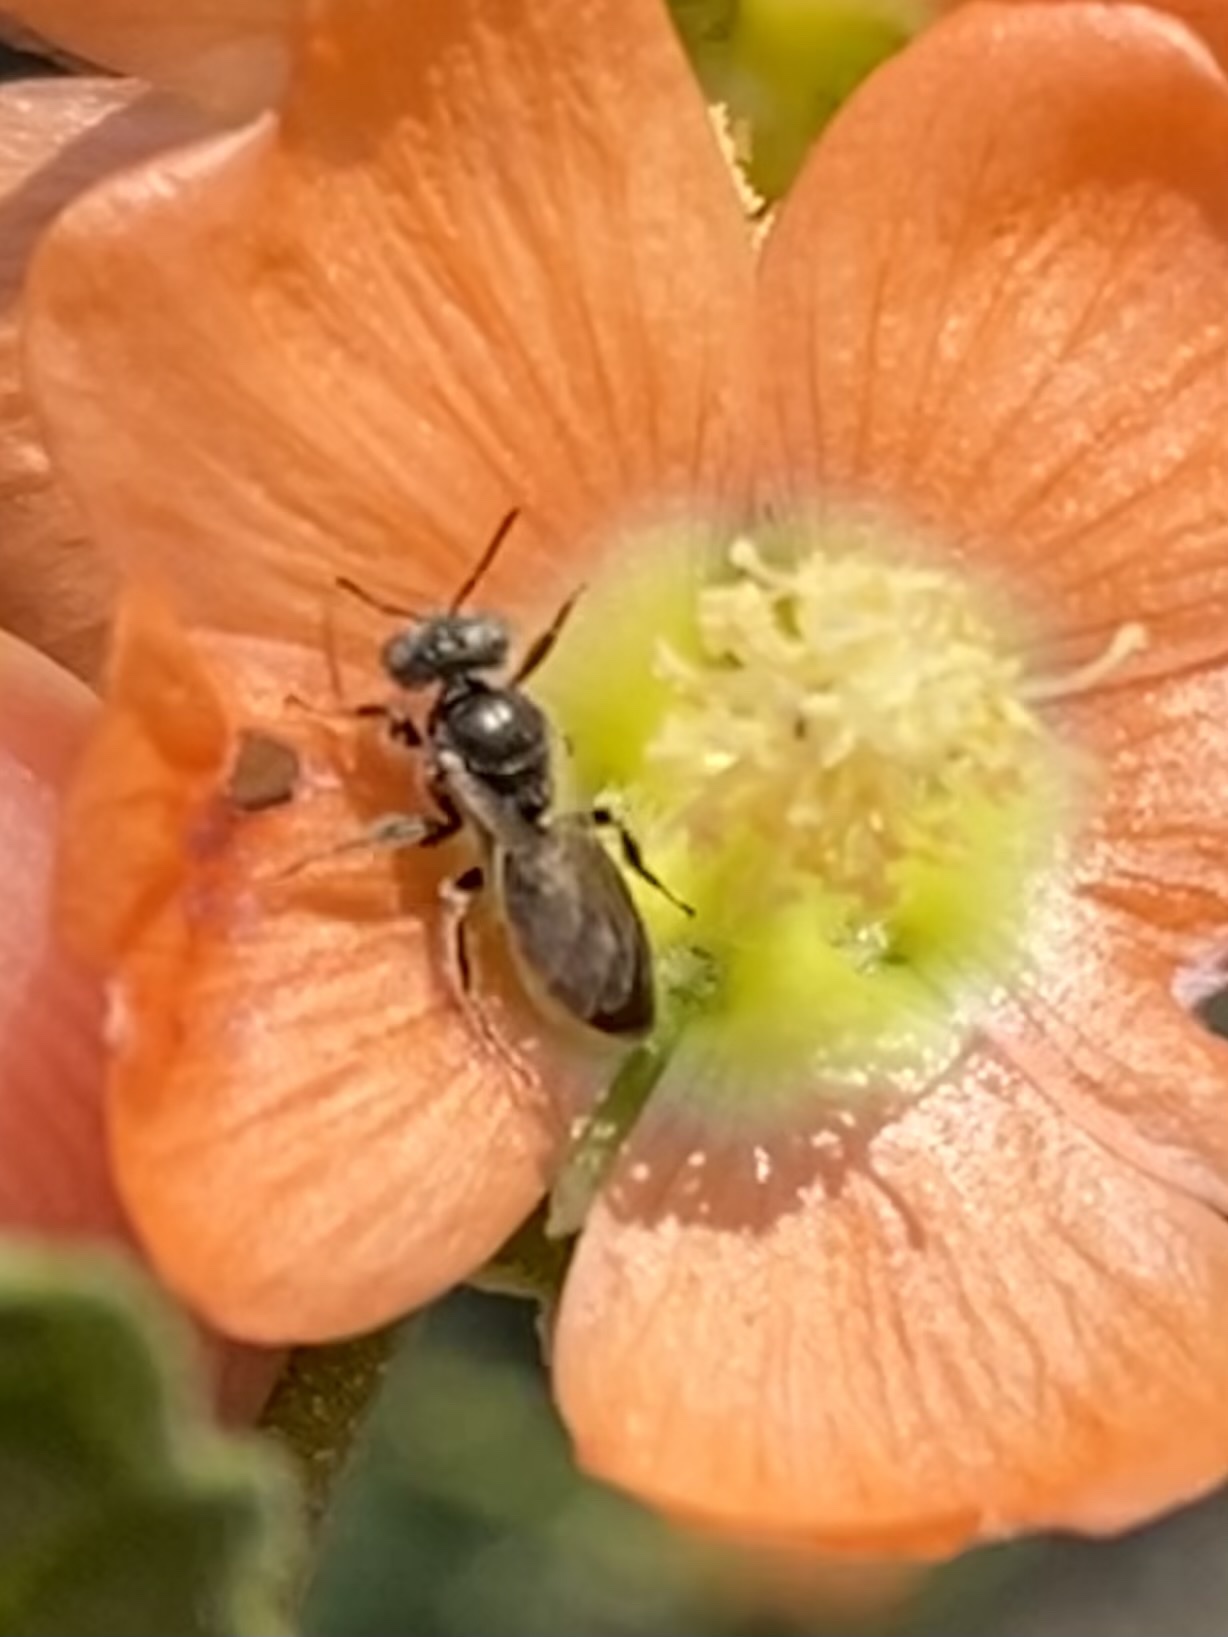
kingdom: Animalia
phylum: Arthropoda
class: Insecta
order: Hymenoptera
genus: Macroteropsis
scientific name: Macroteropsis
